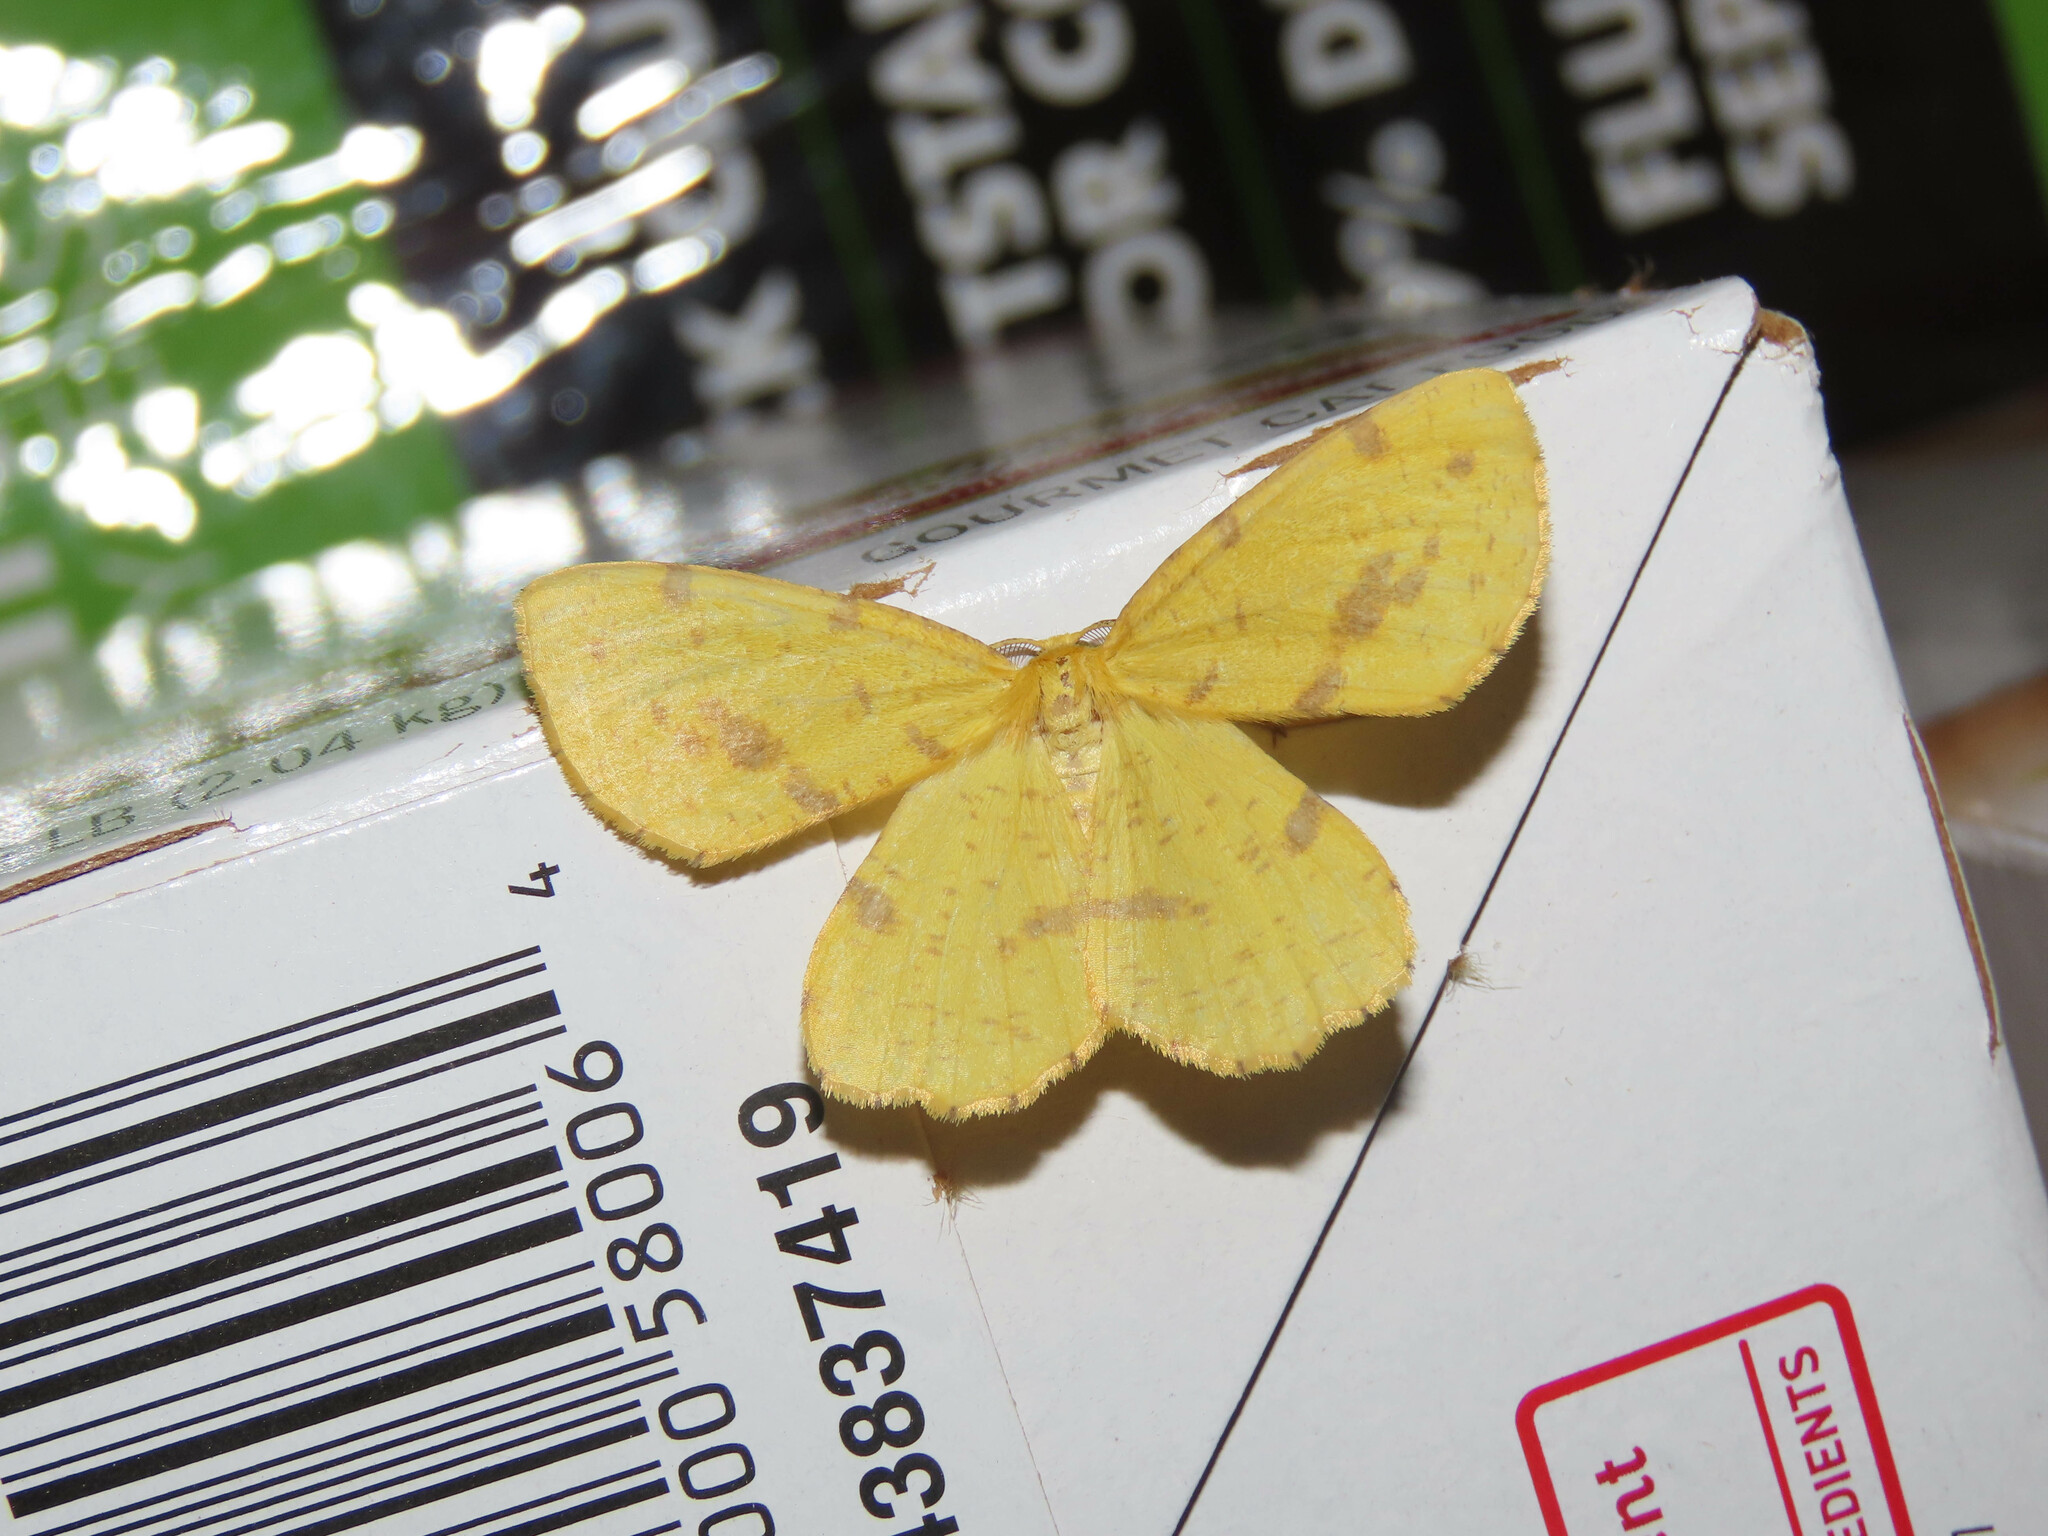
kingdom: Animalia
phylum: Arthropoda
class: Insecta
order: Lepidoptera
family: Geometridae
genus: Xanthotype
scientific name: Xanthotype
